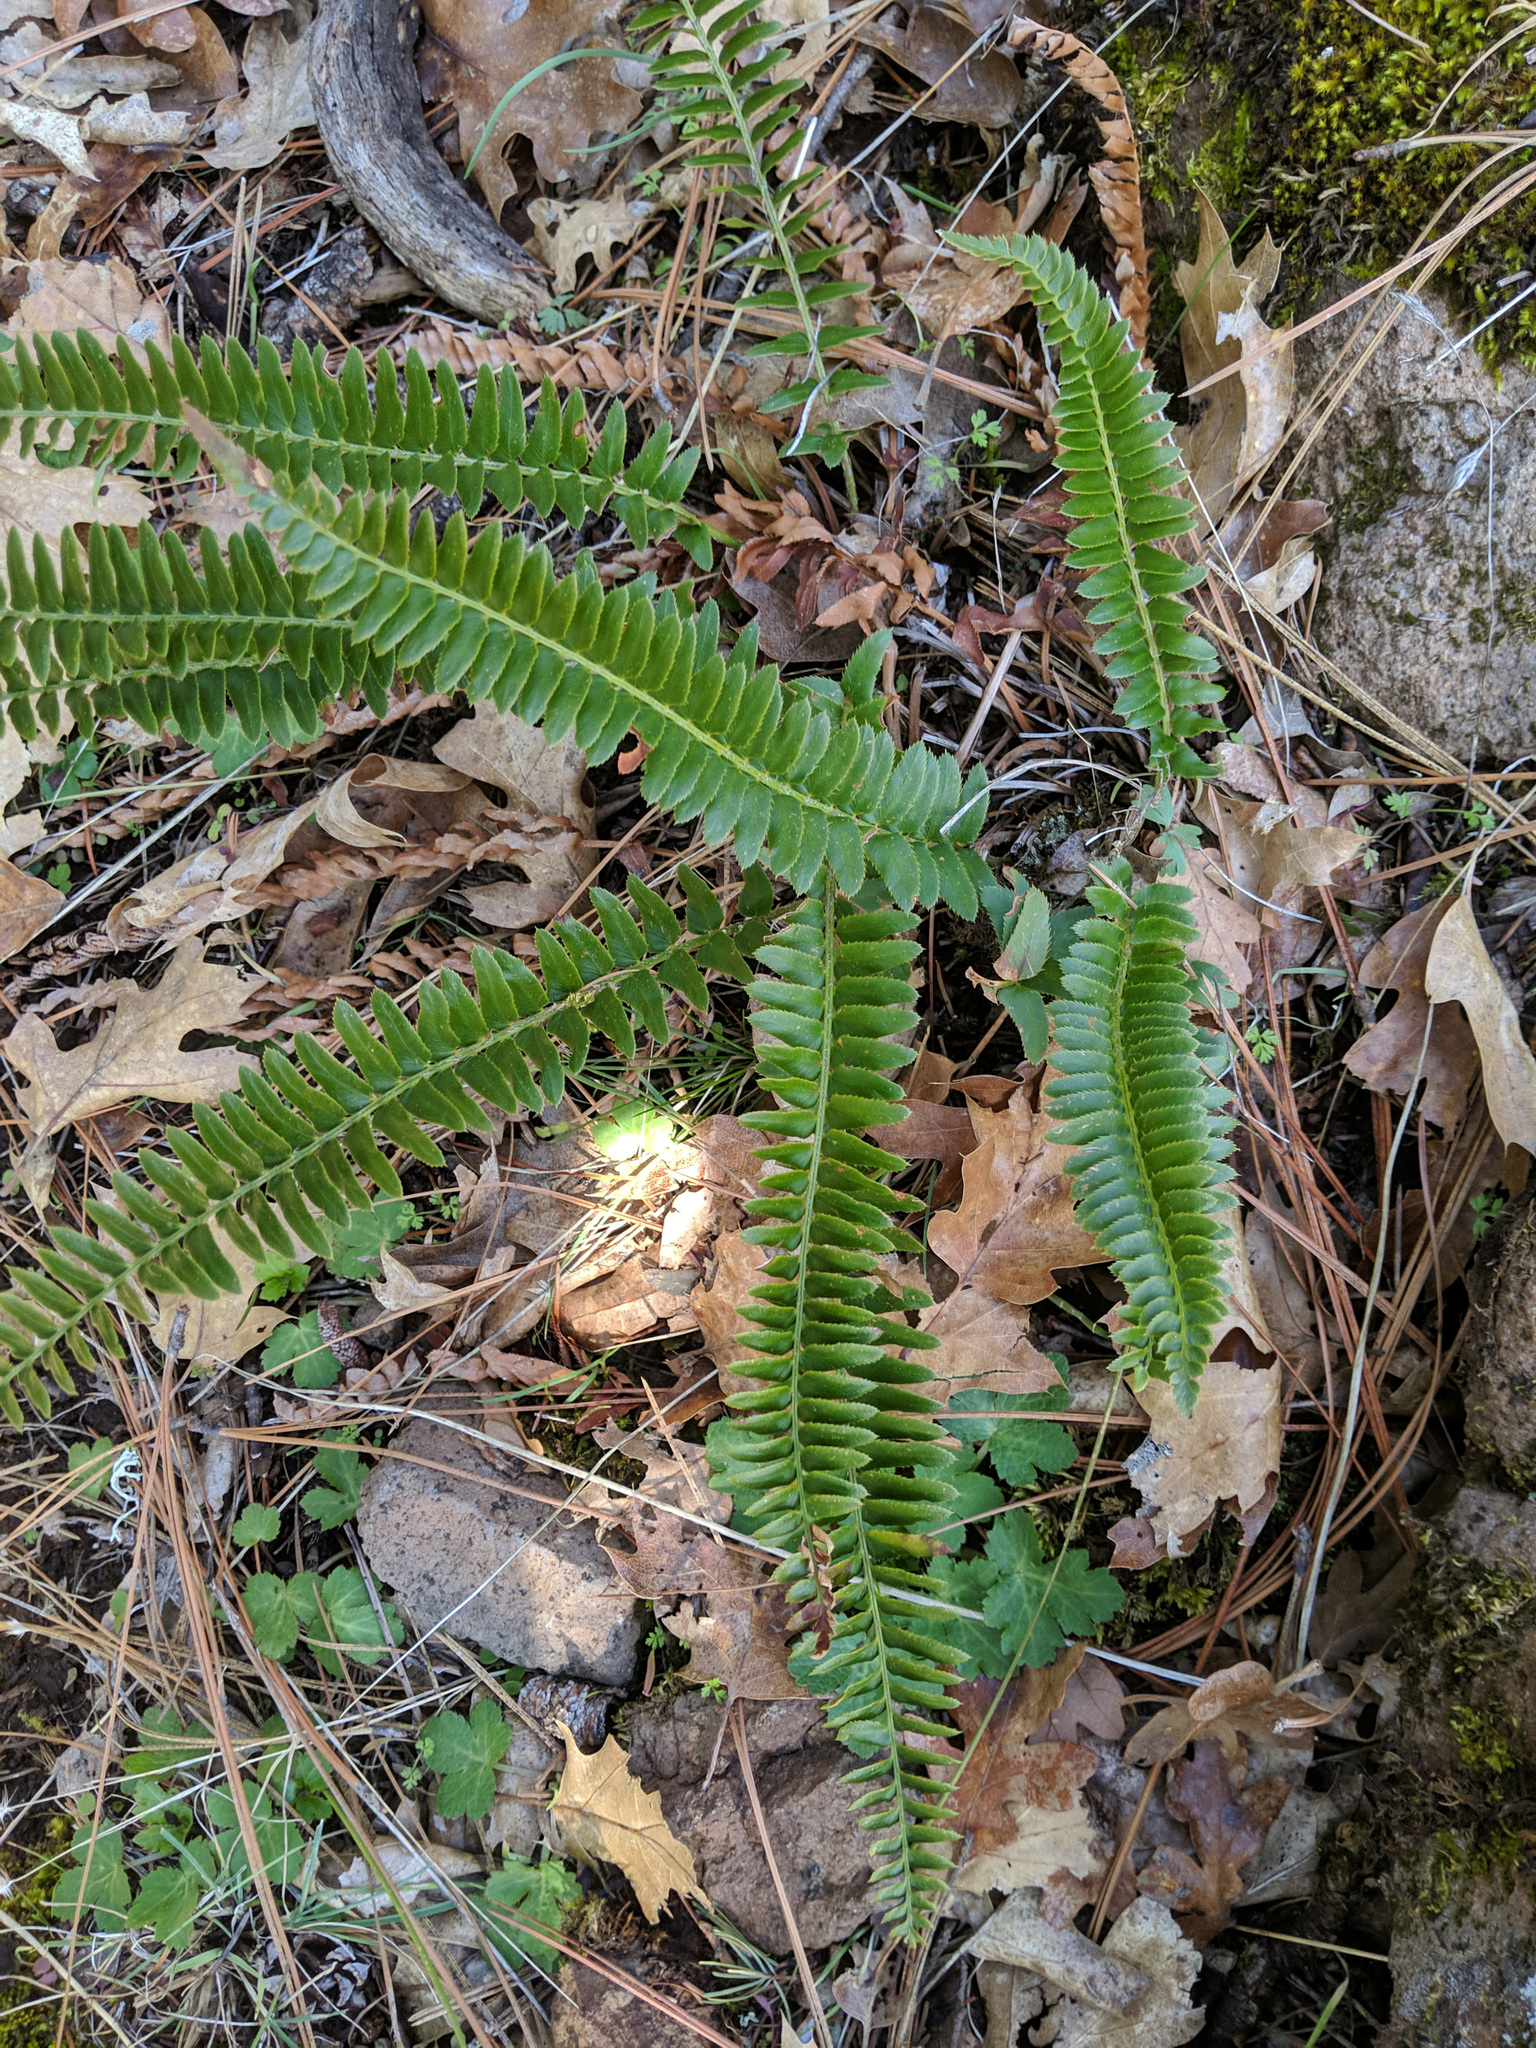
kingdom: Plantae
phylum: Tracheophyta
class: Polypodiopsida
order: Polypodiales
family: Dryopteridaceae
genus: Polystichum
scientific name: Polystichum imbricans
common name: Dwarf western sword fern
